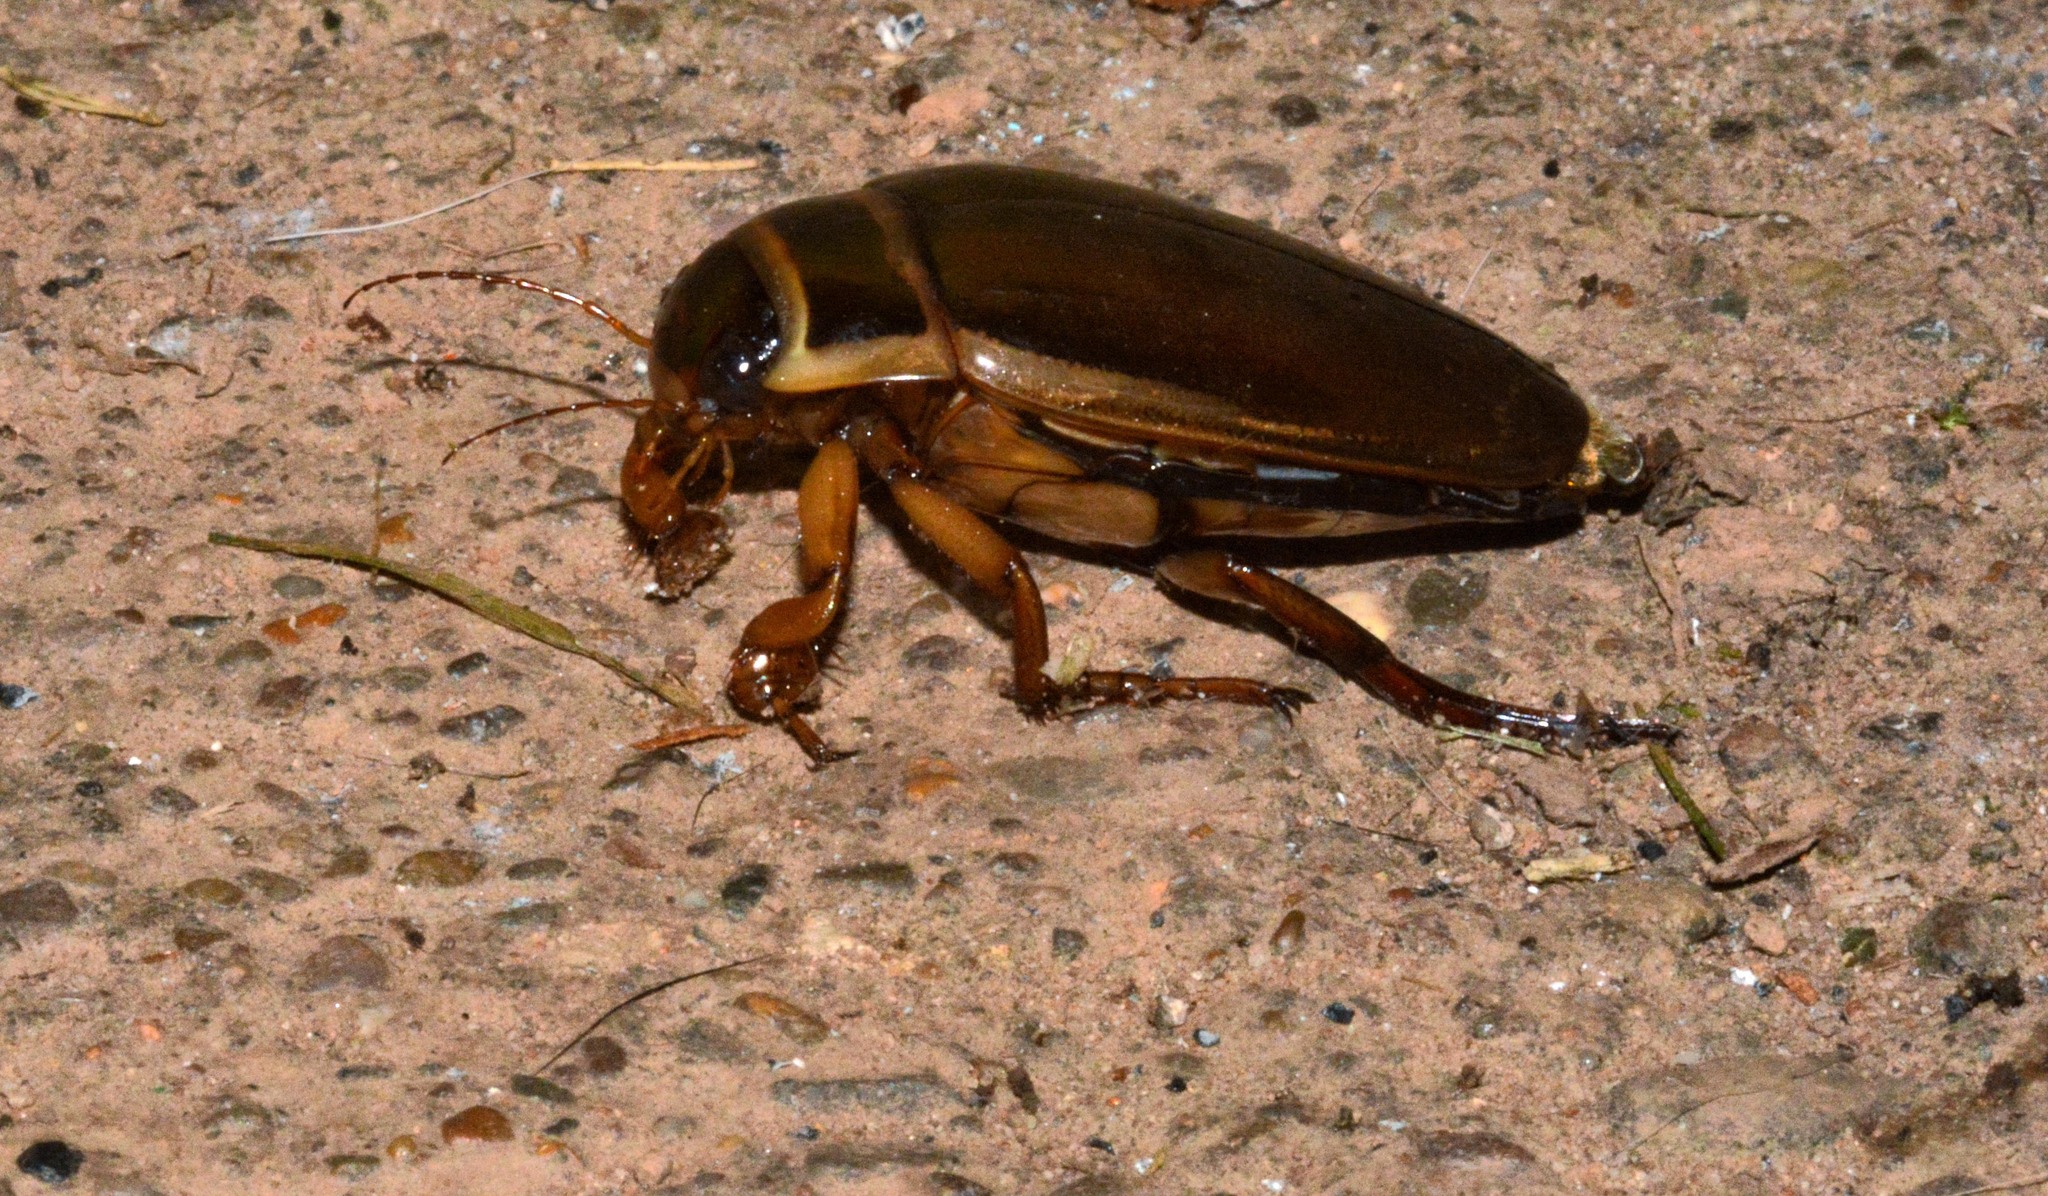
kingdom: Animalia
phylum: Arthropoda
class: Insecta
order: Coleoptera
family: Dytiscidae
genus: Dytiscus
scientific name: Dytiscus marginalis
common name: Great water beetle
